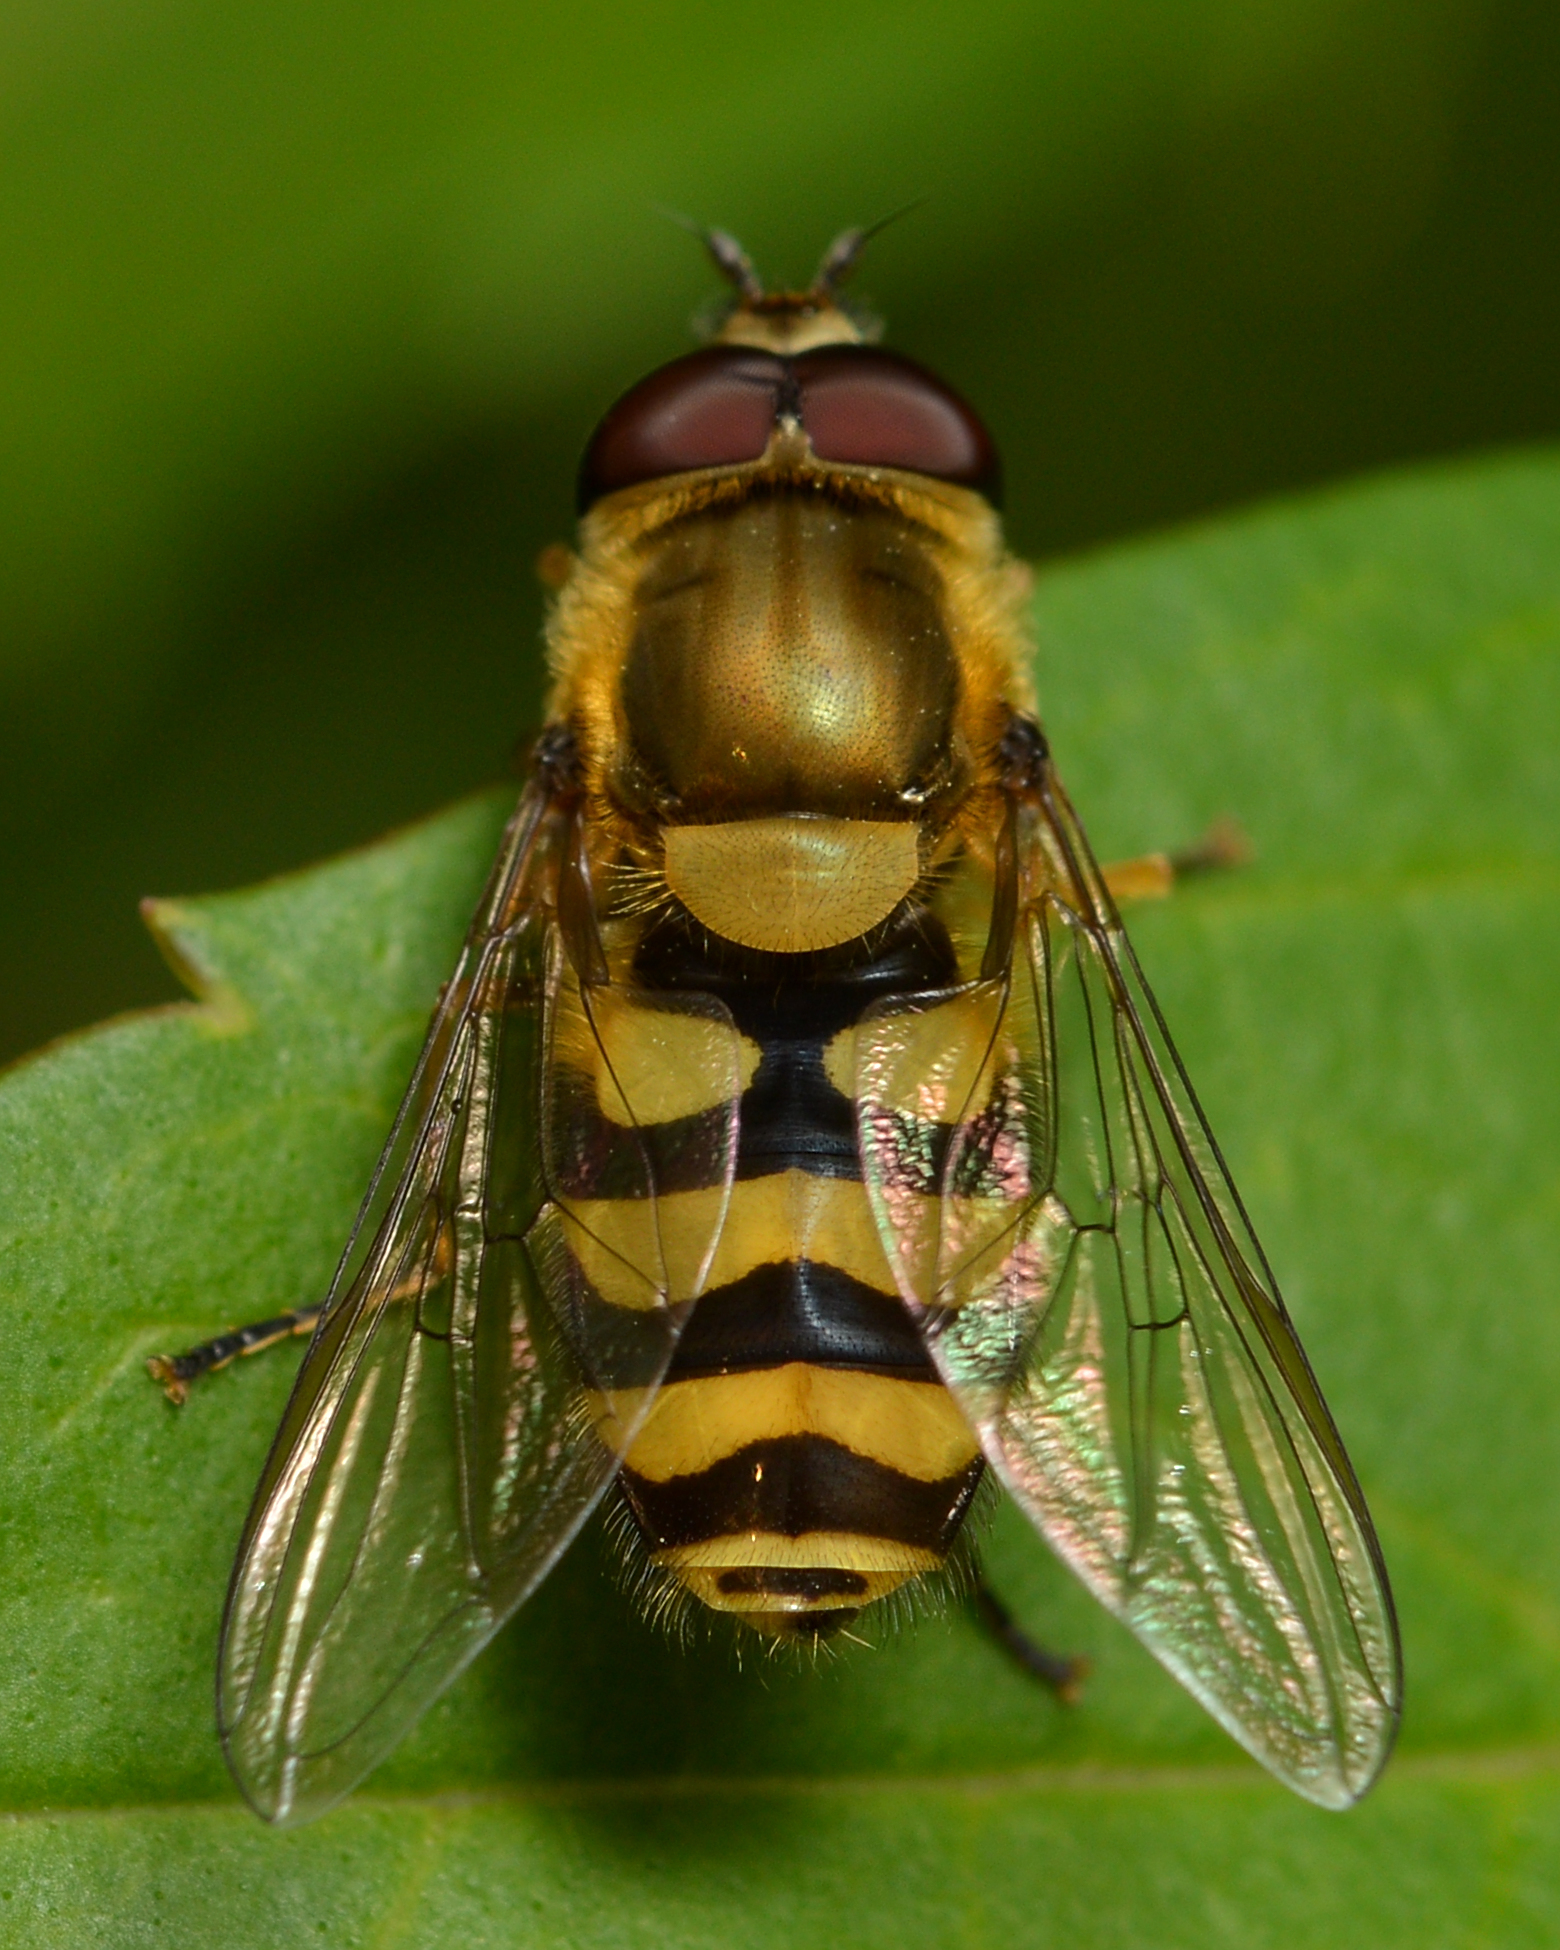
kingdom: Animalia
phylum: Arthropoda
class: Insecta
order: Diptera
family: Syrphidae
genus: Syrphus
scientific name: Syrphus
